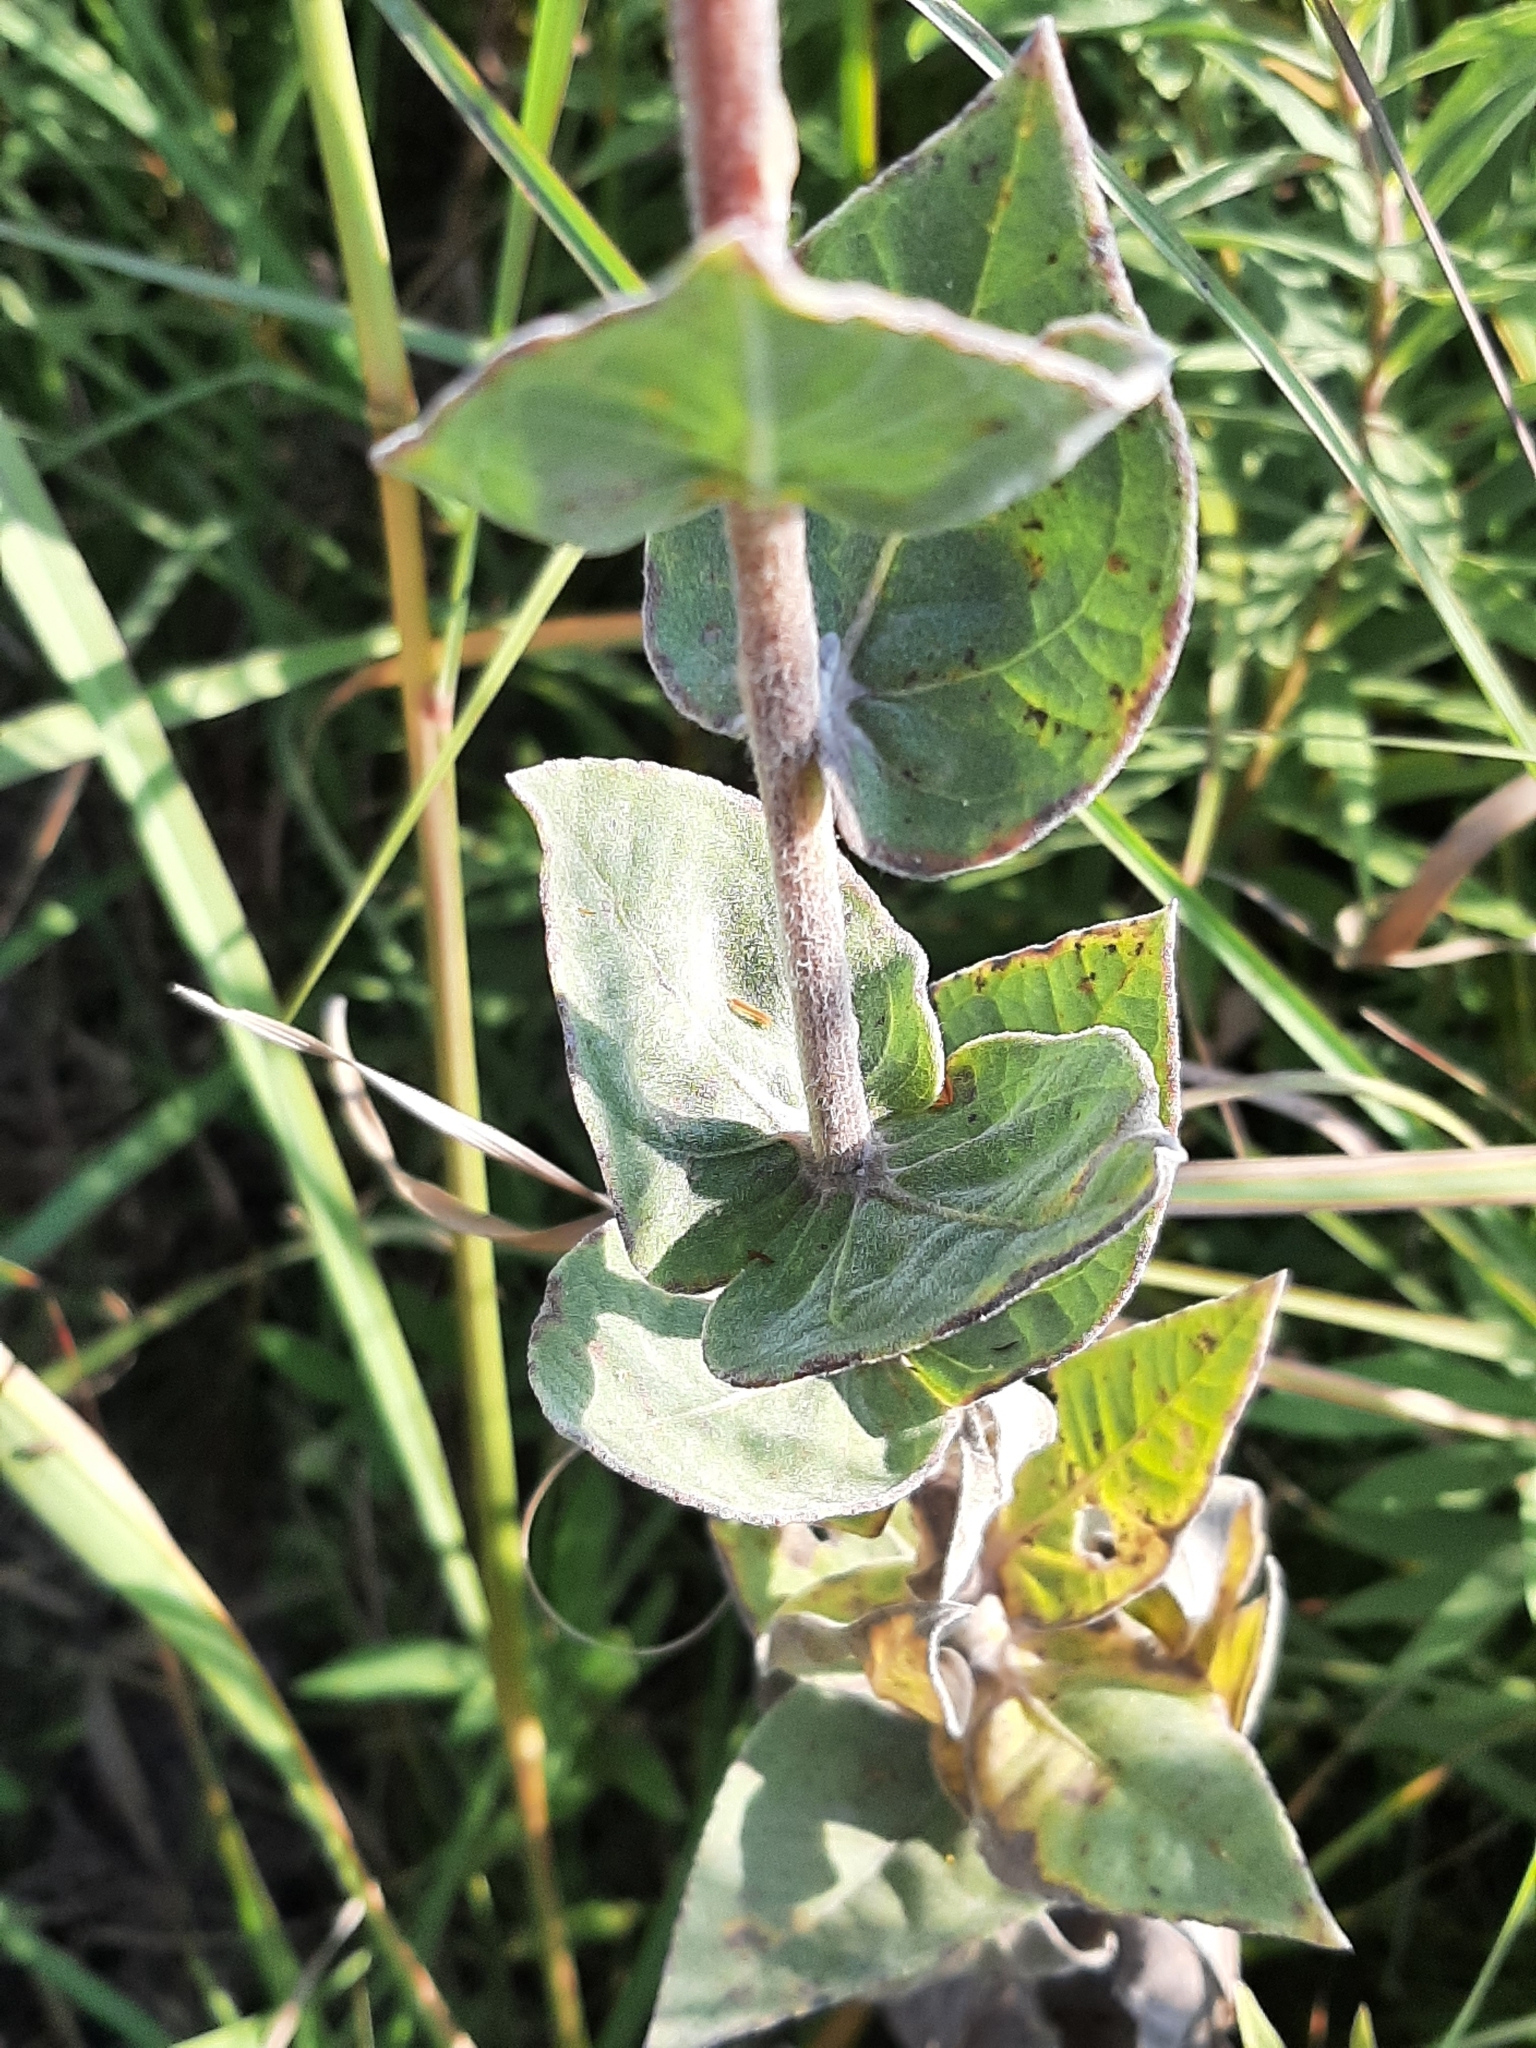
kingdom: Plantae
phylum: Tracheophyta
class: Magnoliopsida
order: Asterales
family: Asteraceae
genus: Helianthus
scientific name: Helianthus mollis
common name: Ashy sunflower
